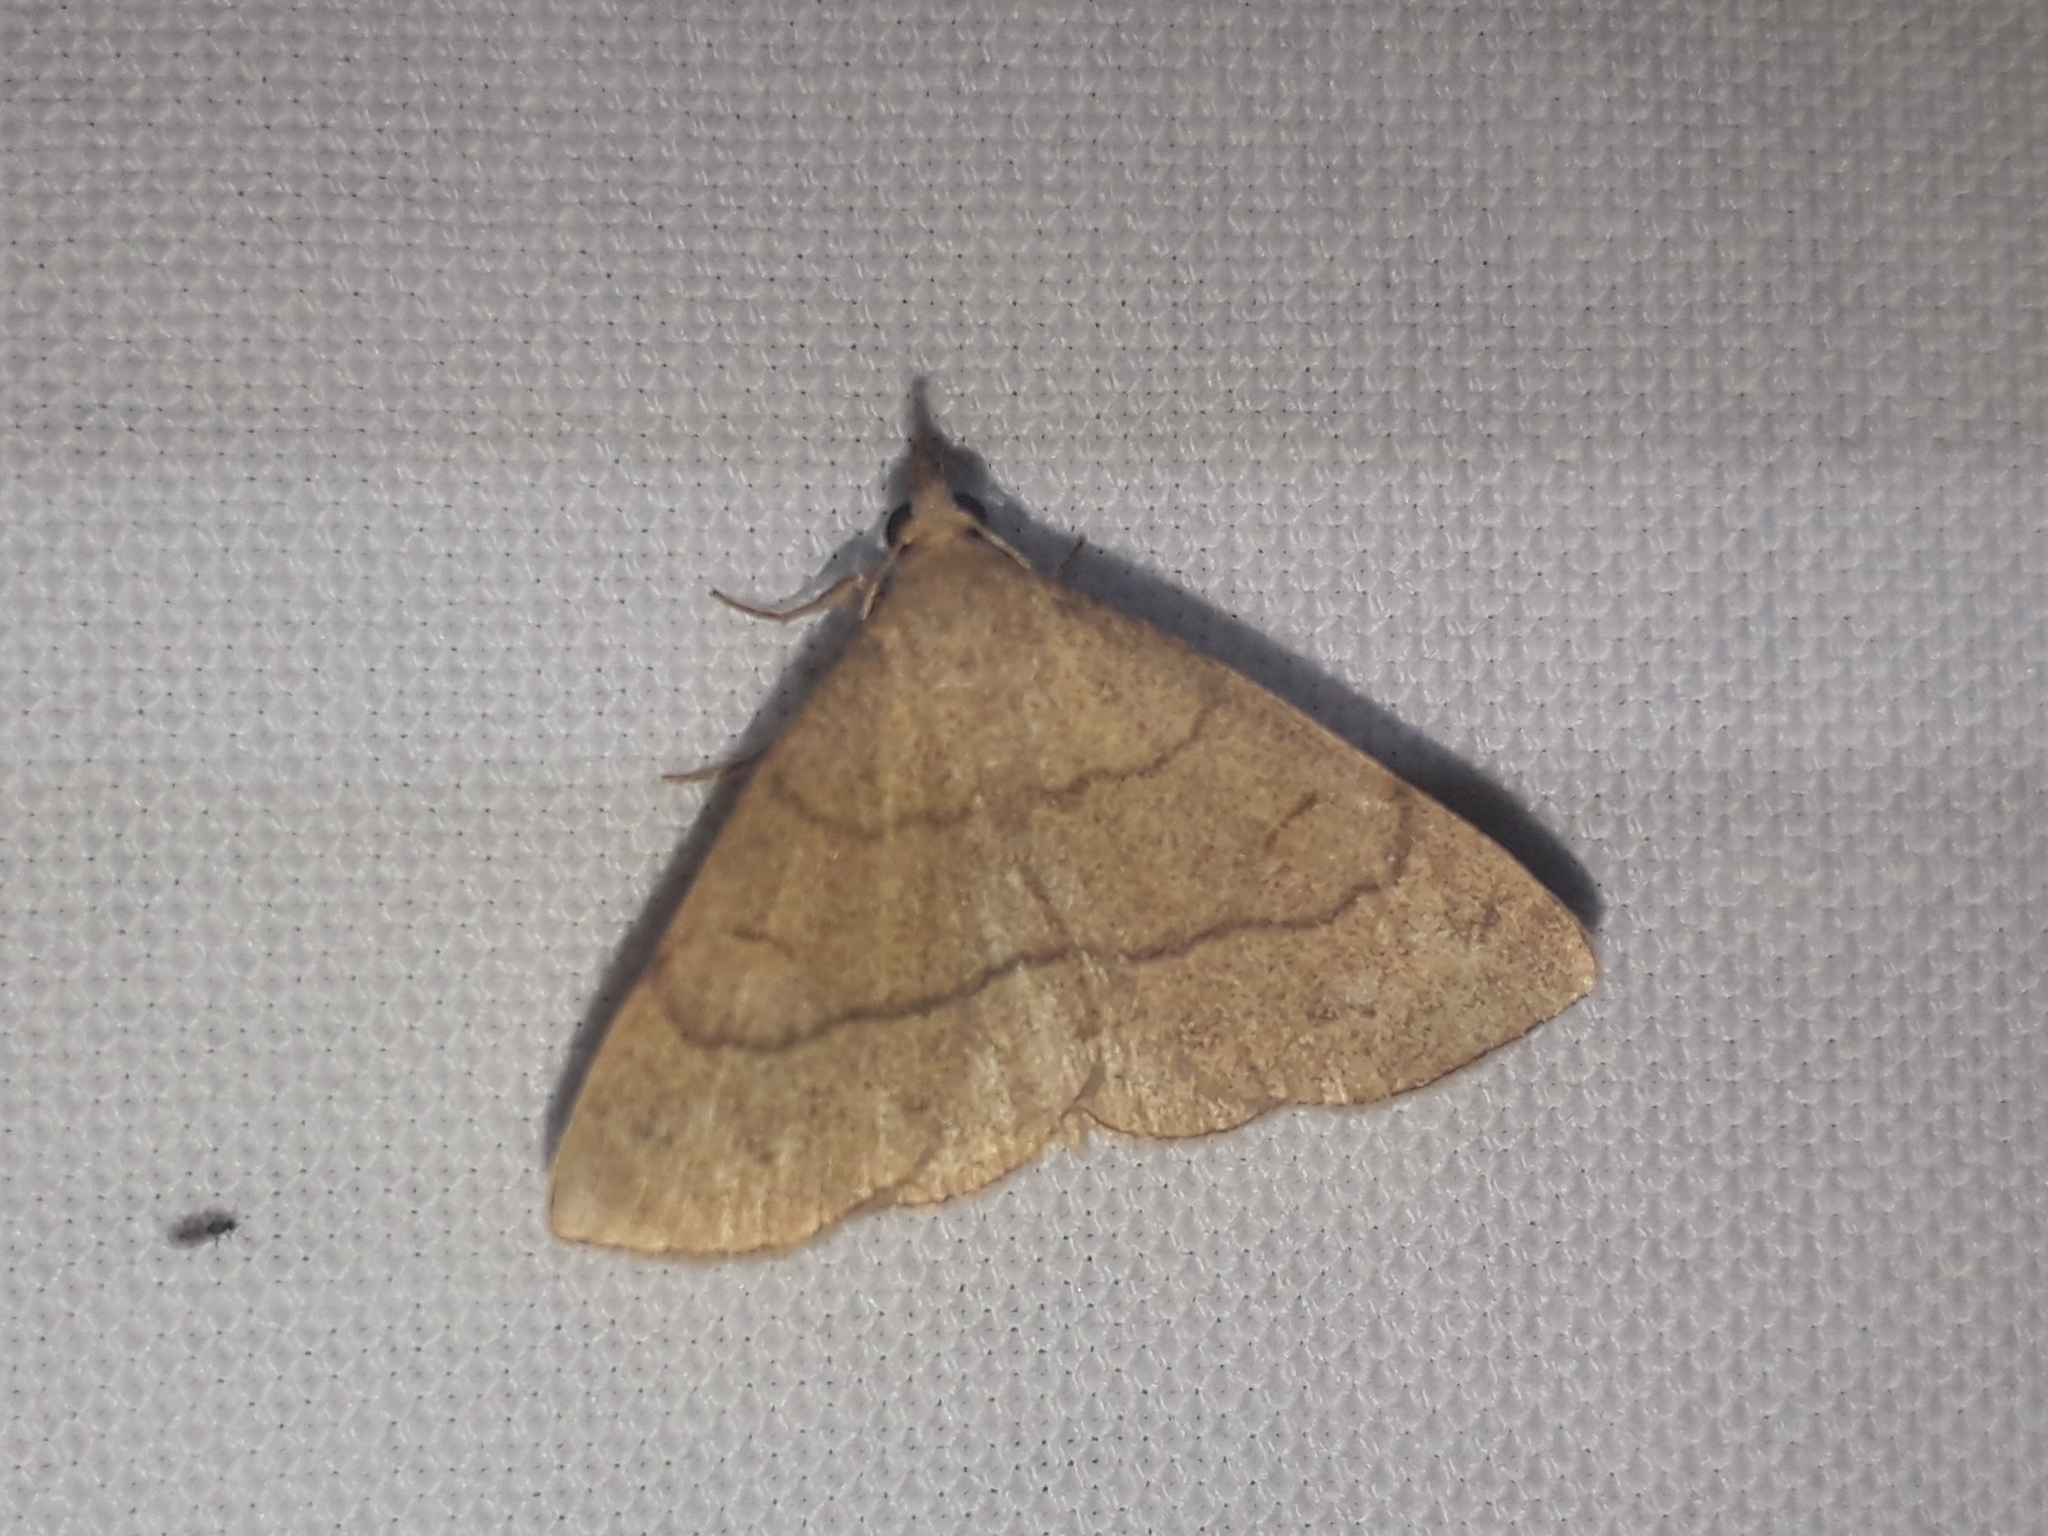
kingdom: Animalia
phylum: Arthropoda
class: Insecta
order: Lepidoptera
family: Erebidae
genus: Paracolax
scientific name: Paracolax tristalis
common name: Clay fan-foot
